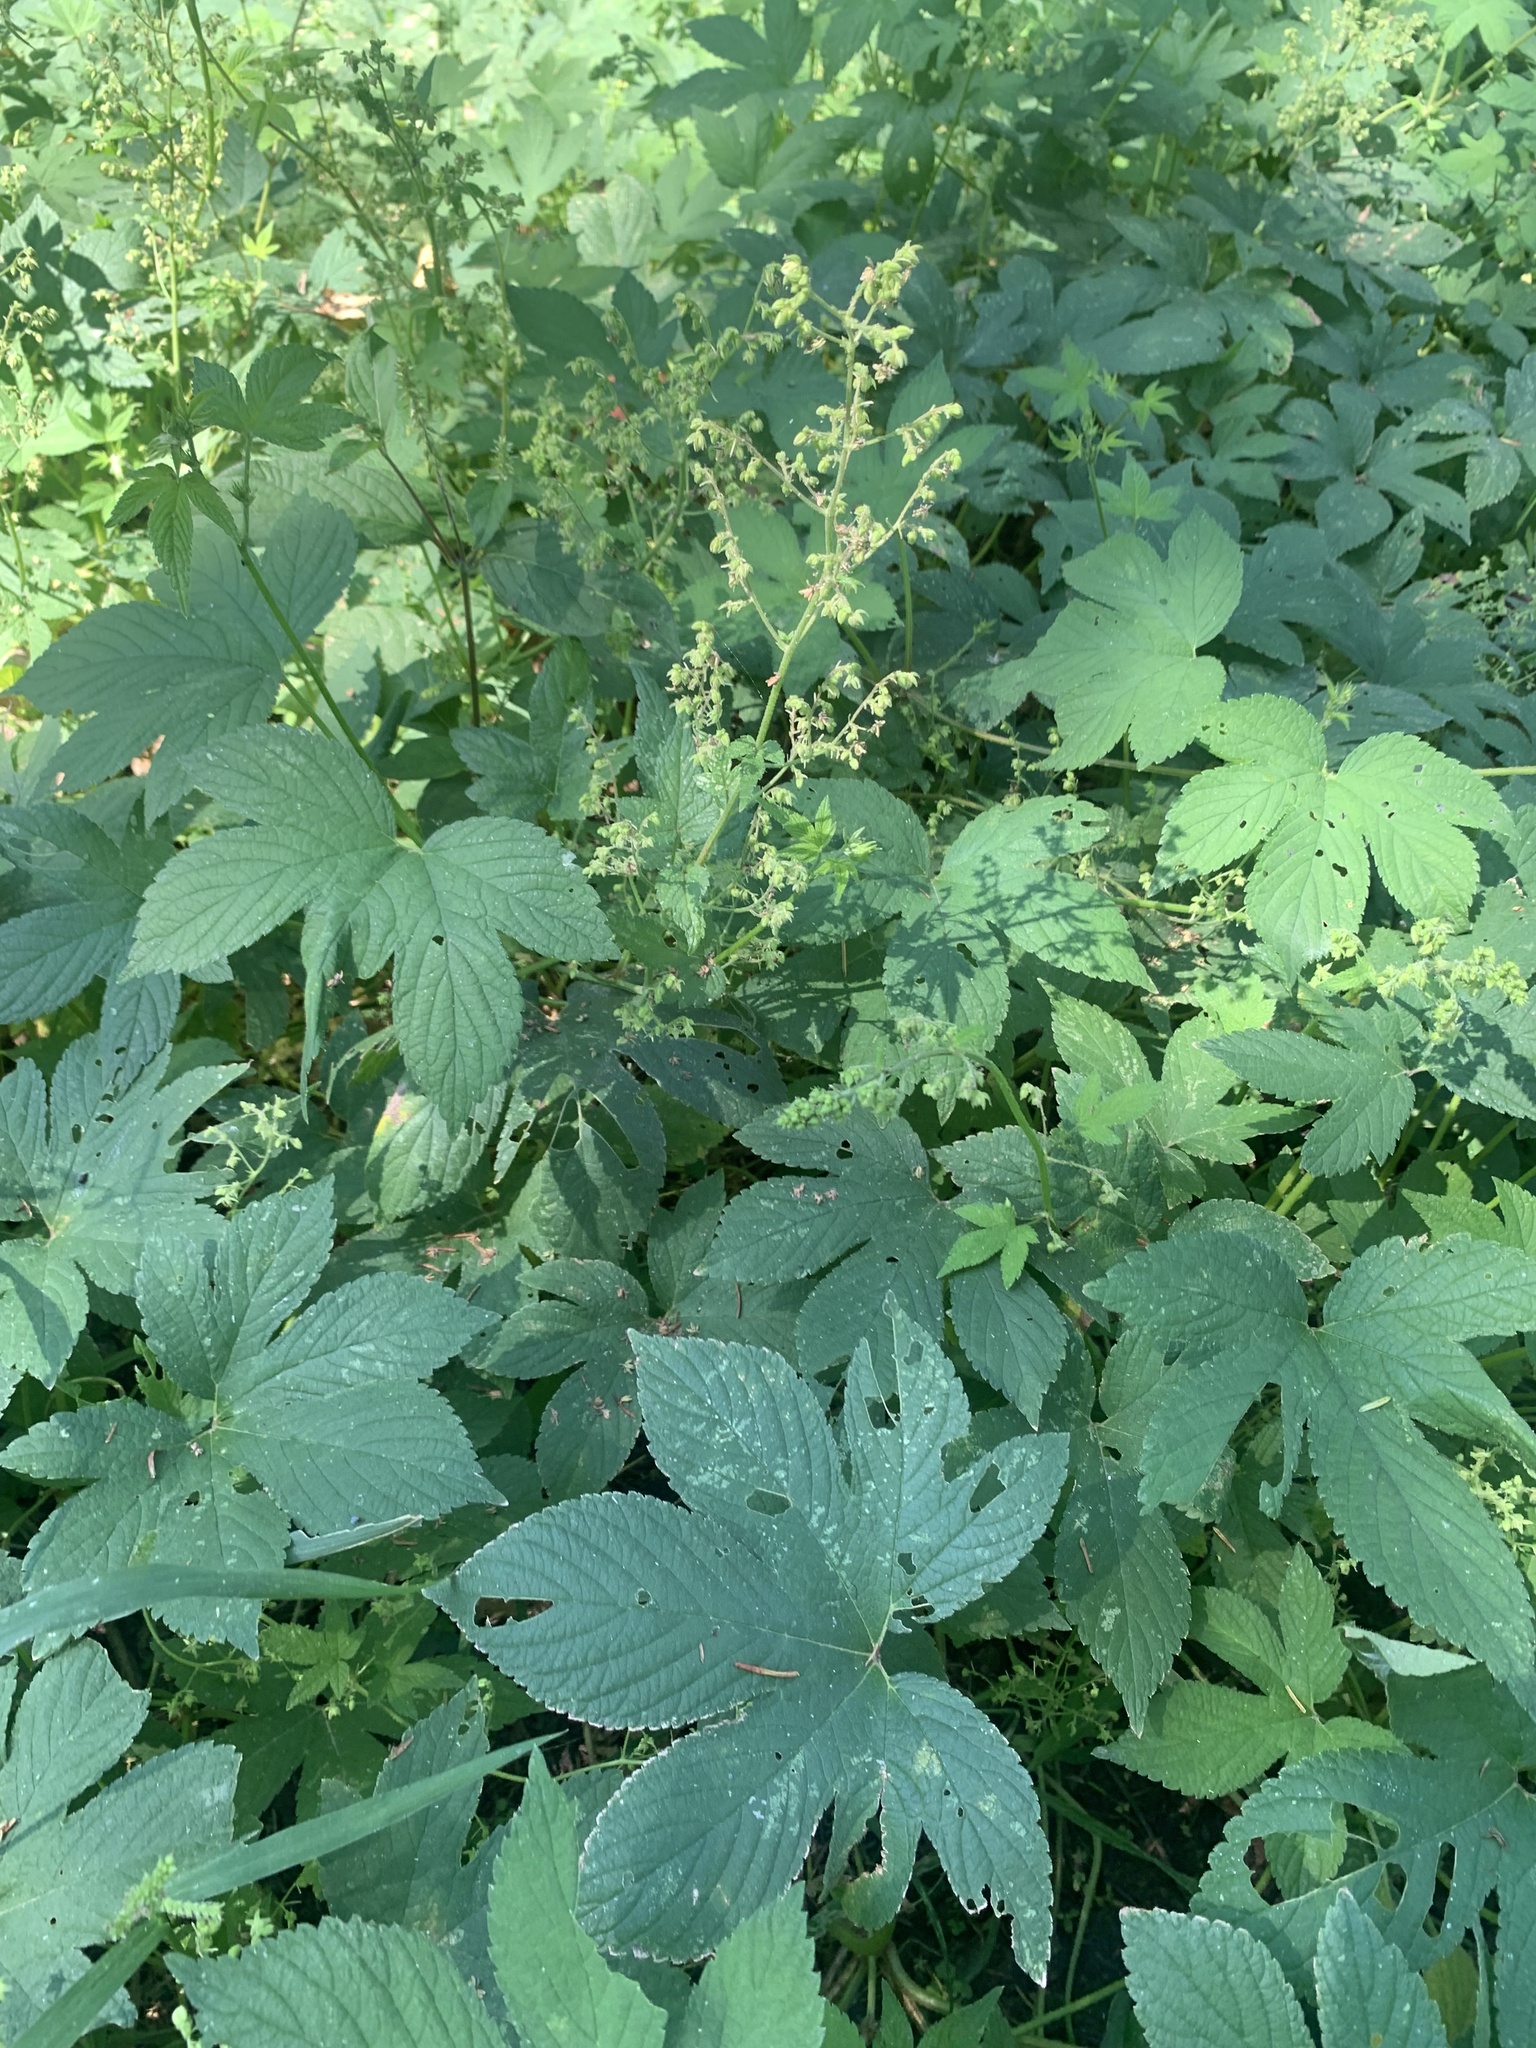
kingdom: Plantae
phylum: Tracheophyta
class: Magnoliopsida
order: Rosales
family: Cannabaceae
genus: Humulus
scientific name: Humulus scandens
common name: Japanese hop
